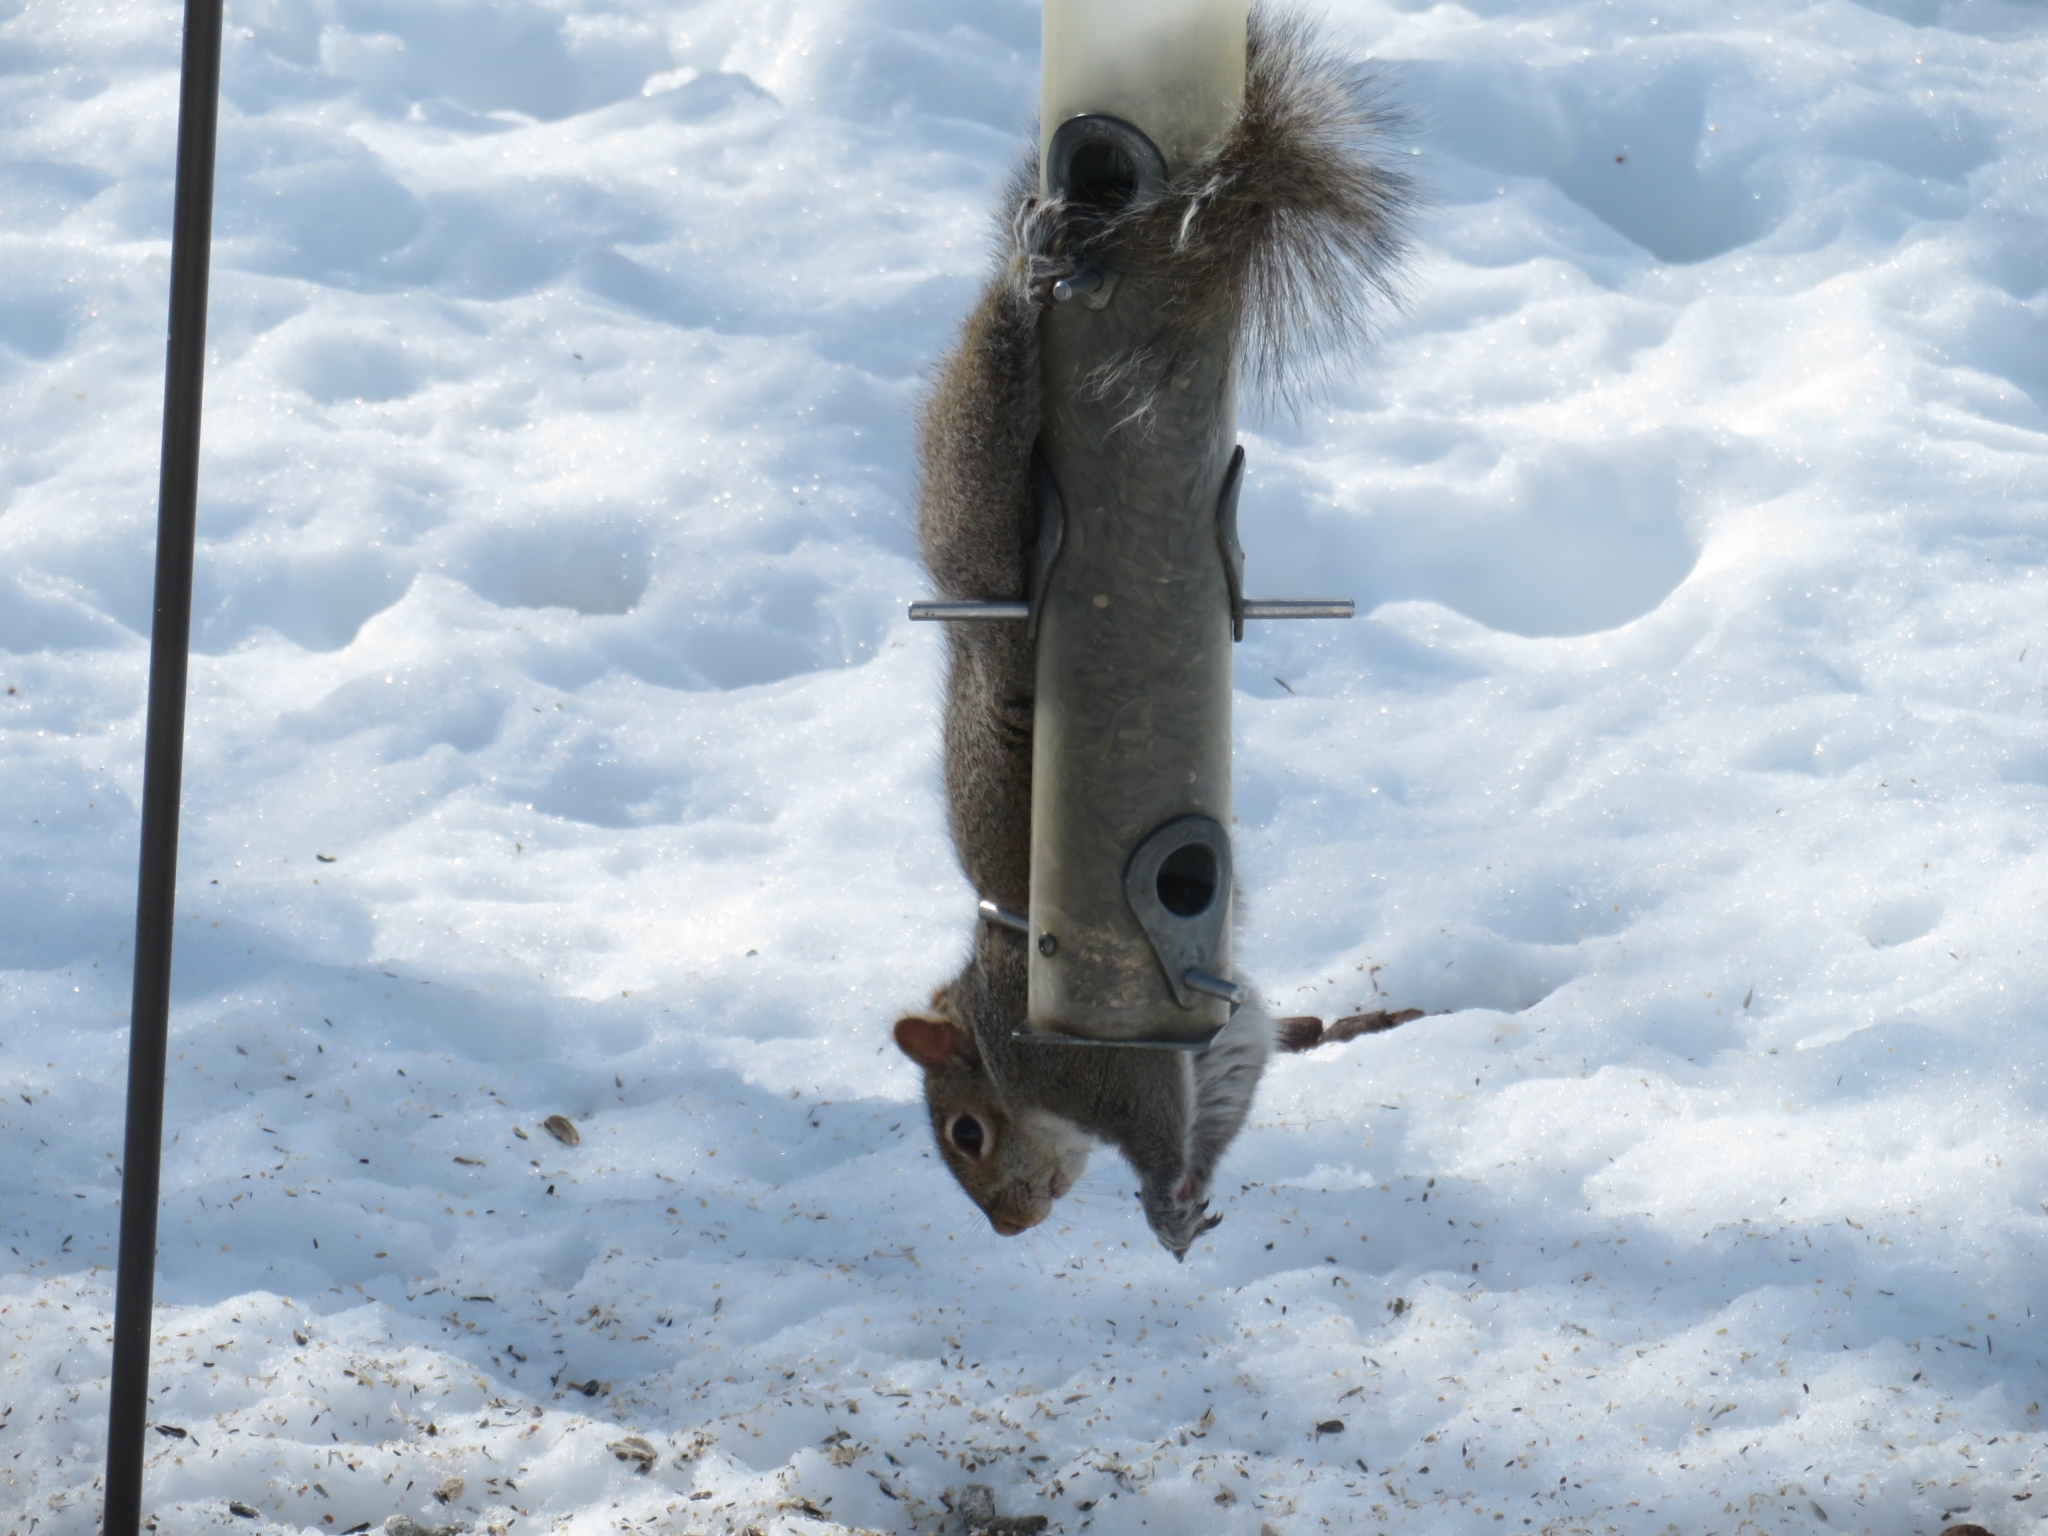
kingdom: Animalia
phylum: Chordata
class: Mammalia
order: Rodentia
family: Sciuridae
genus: Sciurus
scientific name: Sciurus carolinensis
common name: Eastern gray squirrel
